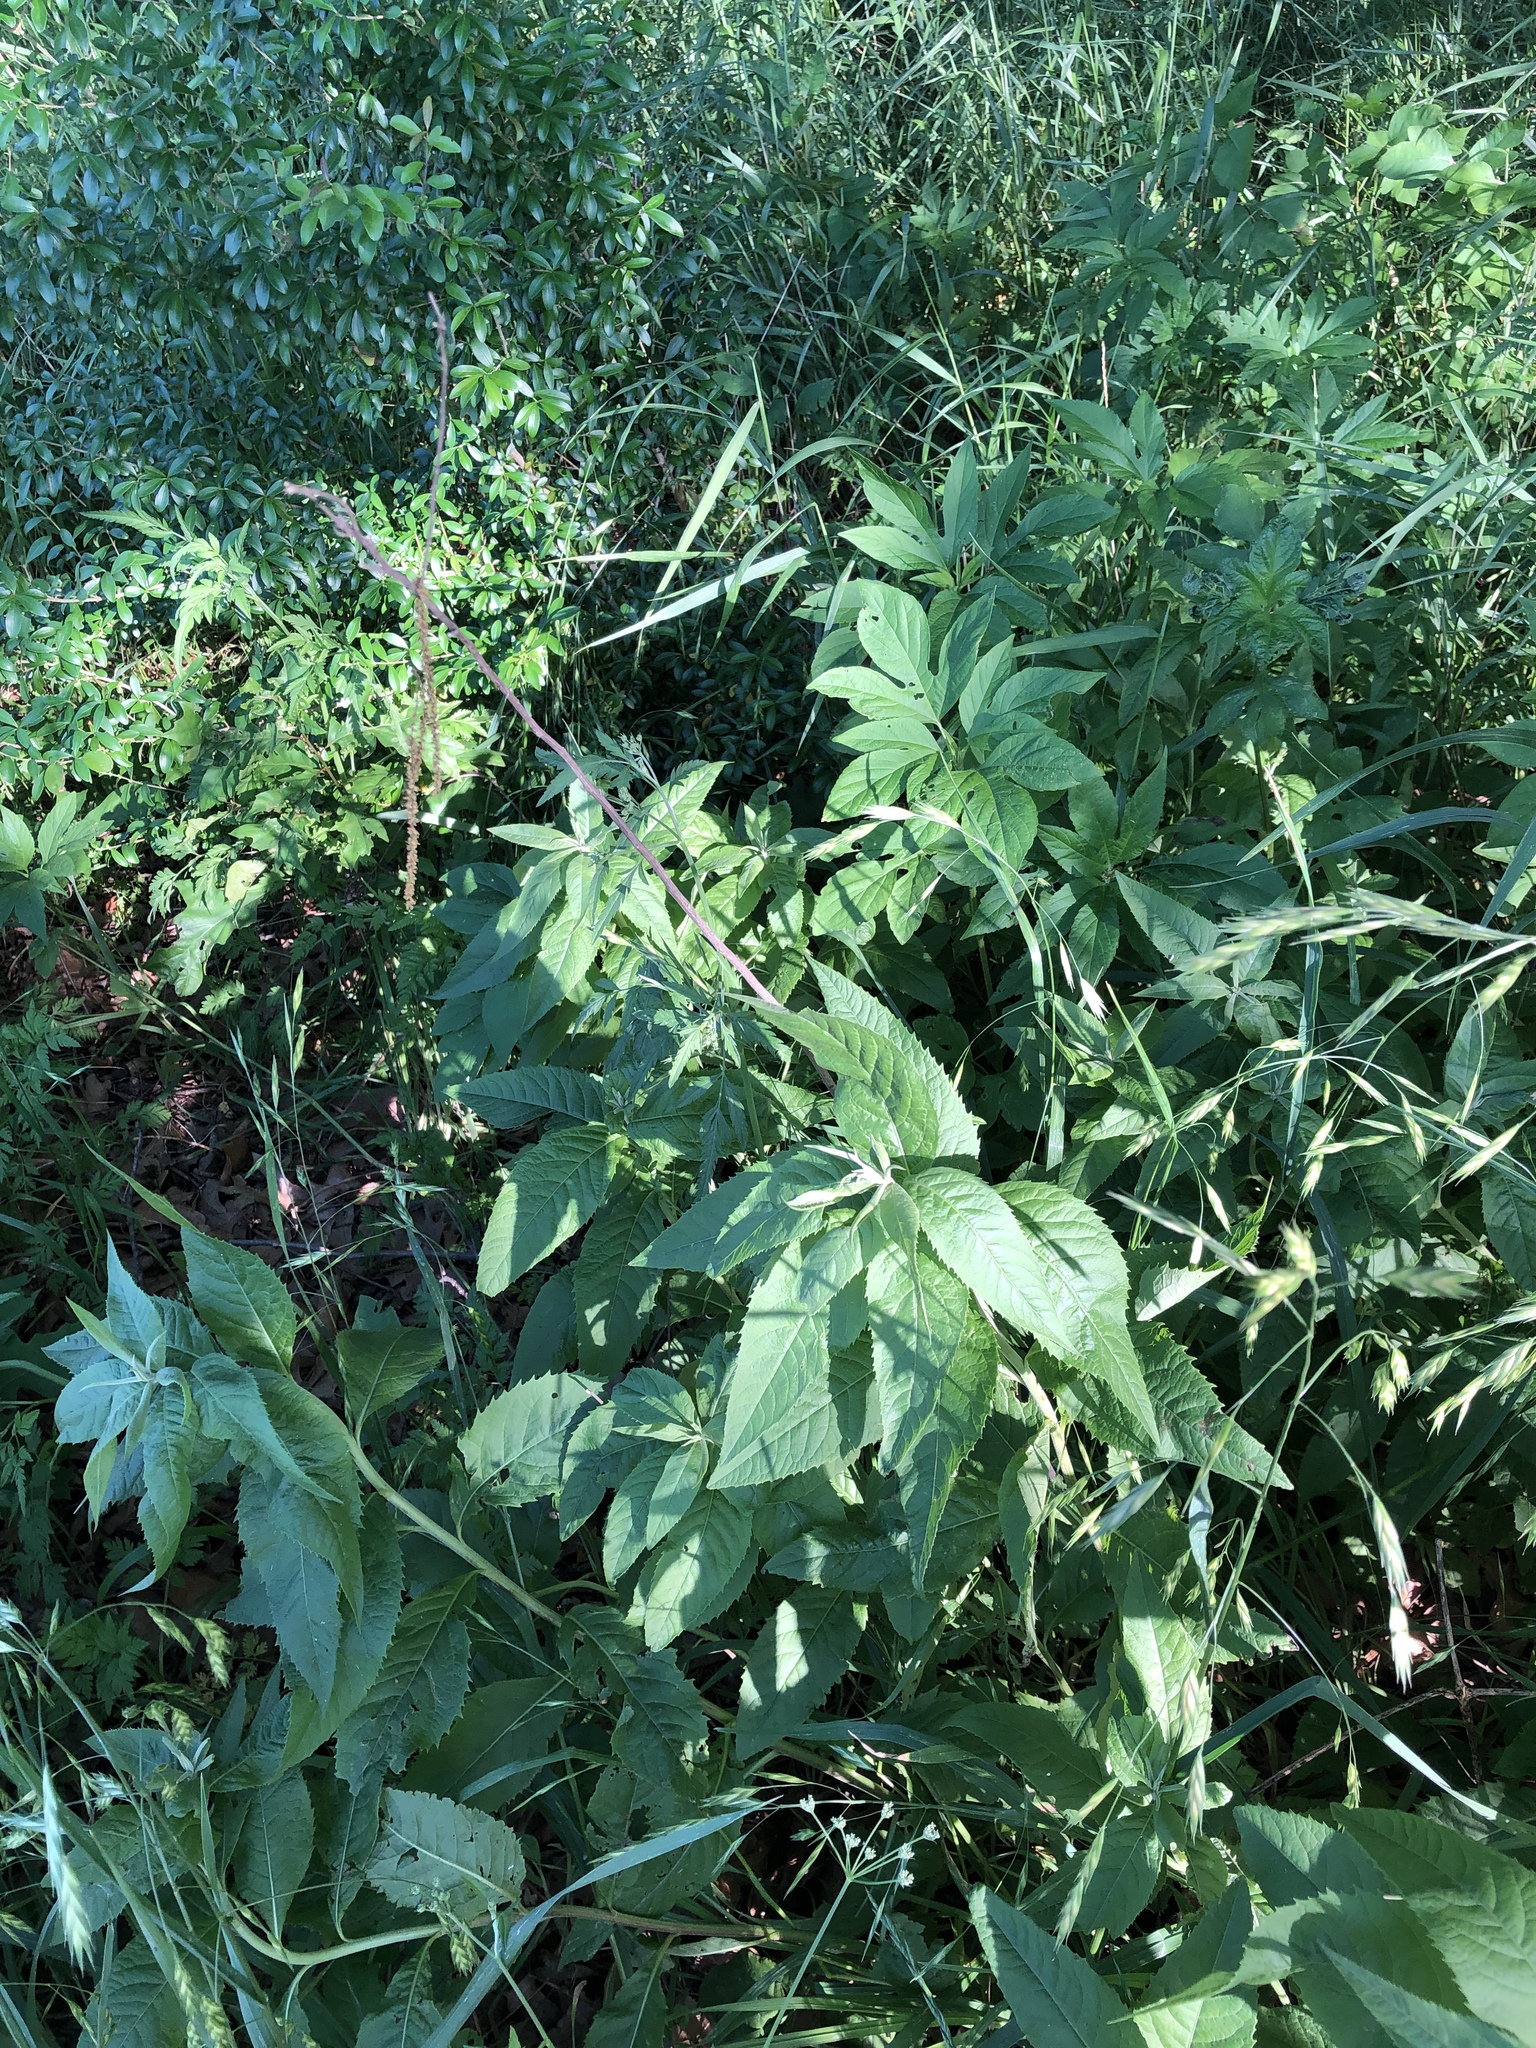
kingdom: Plantae
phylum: Tracheophyta
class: Magnoliopsida
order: Asterales
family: Asteraceae
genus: Vernonia
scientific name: Vernonia baldwinii
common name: Western ironweed
